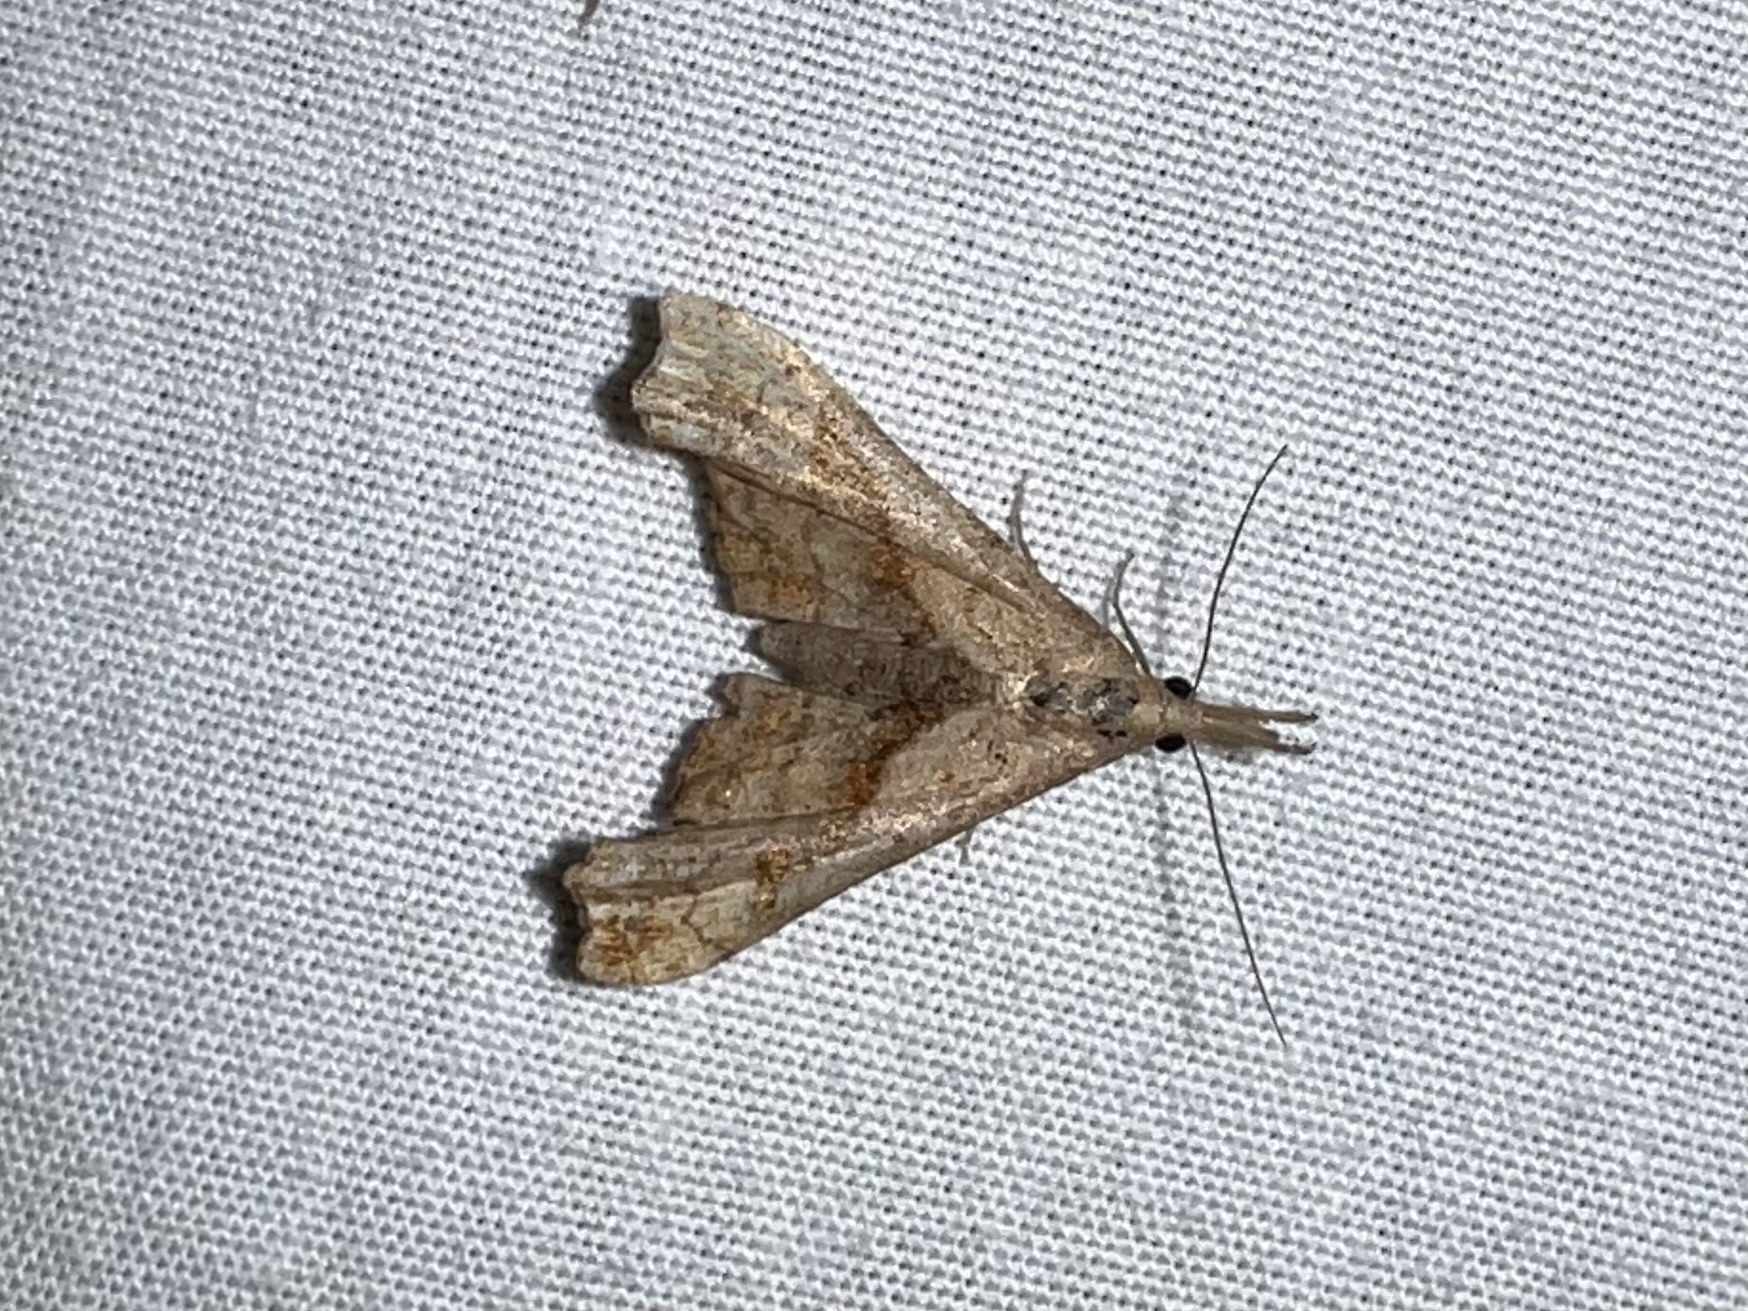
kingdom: Animalia
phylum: Arthropoda
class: Insecta
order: Lepidoptera
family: Erebidae
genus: Palthis
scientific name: Palthis angulalis
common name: Dark-spotted palthis moth
